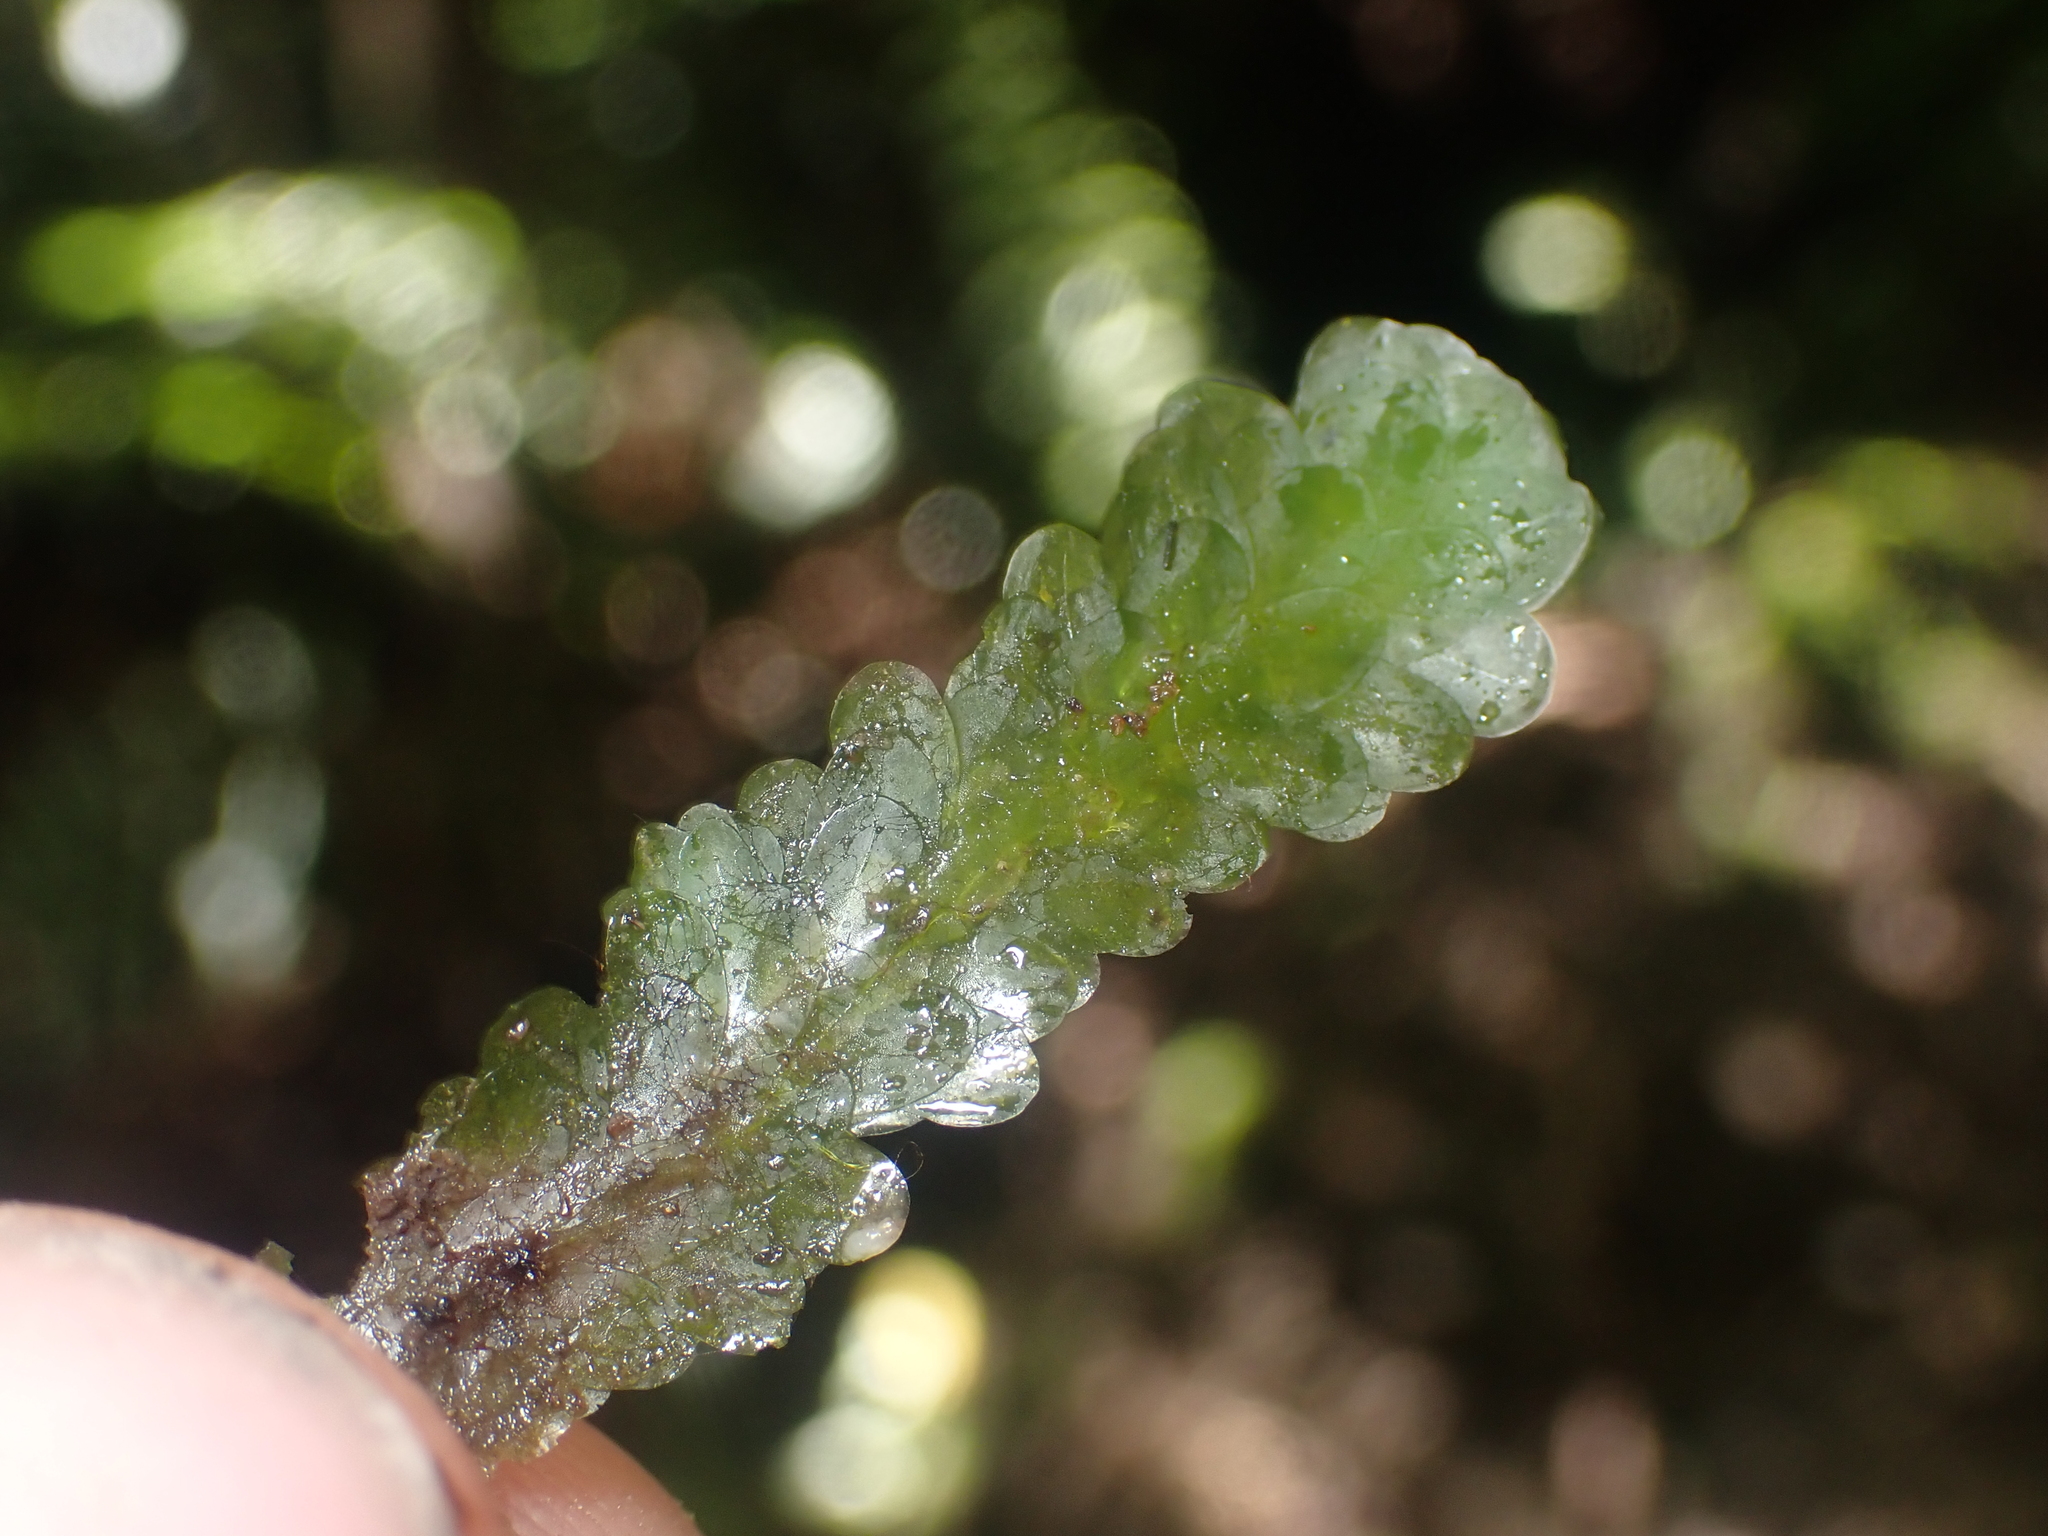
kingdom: Plantae
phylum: Bryophyta
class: Bryopsida
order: Hookeriales
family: Daltoniaceae
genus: Distichophyllum
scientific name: Distichophyllum microcarpon
